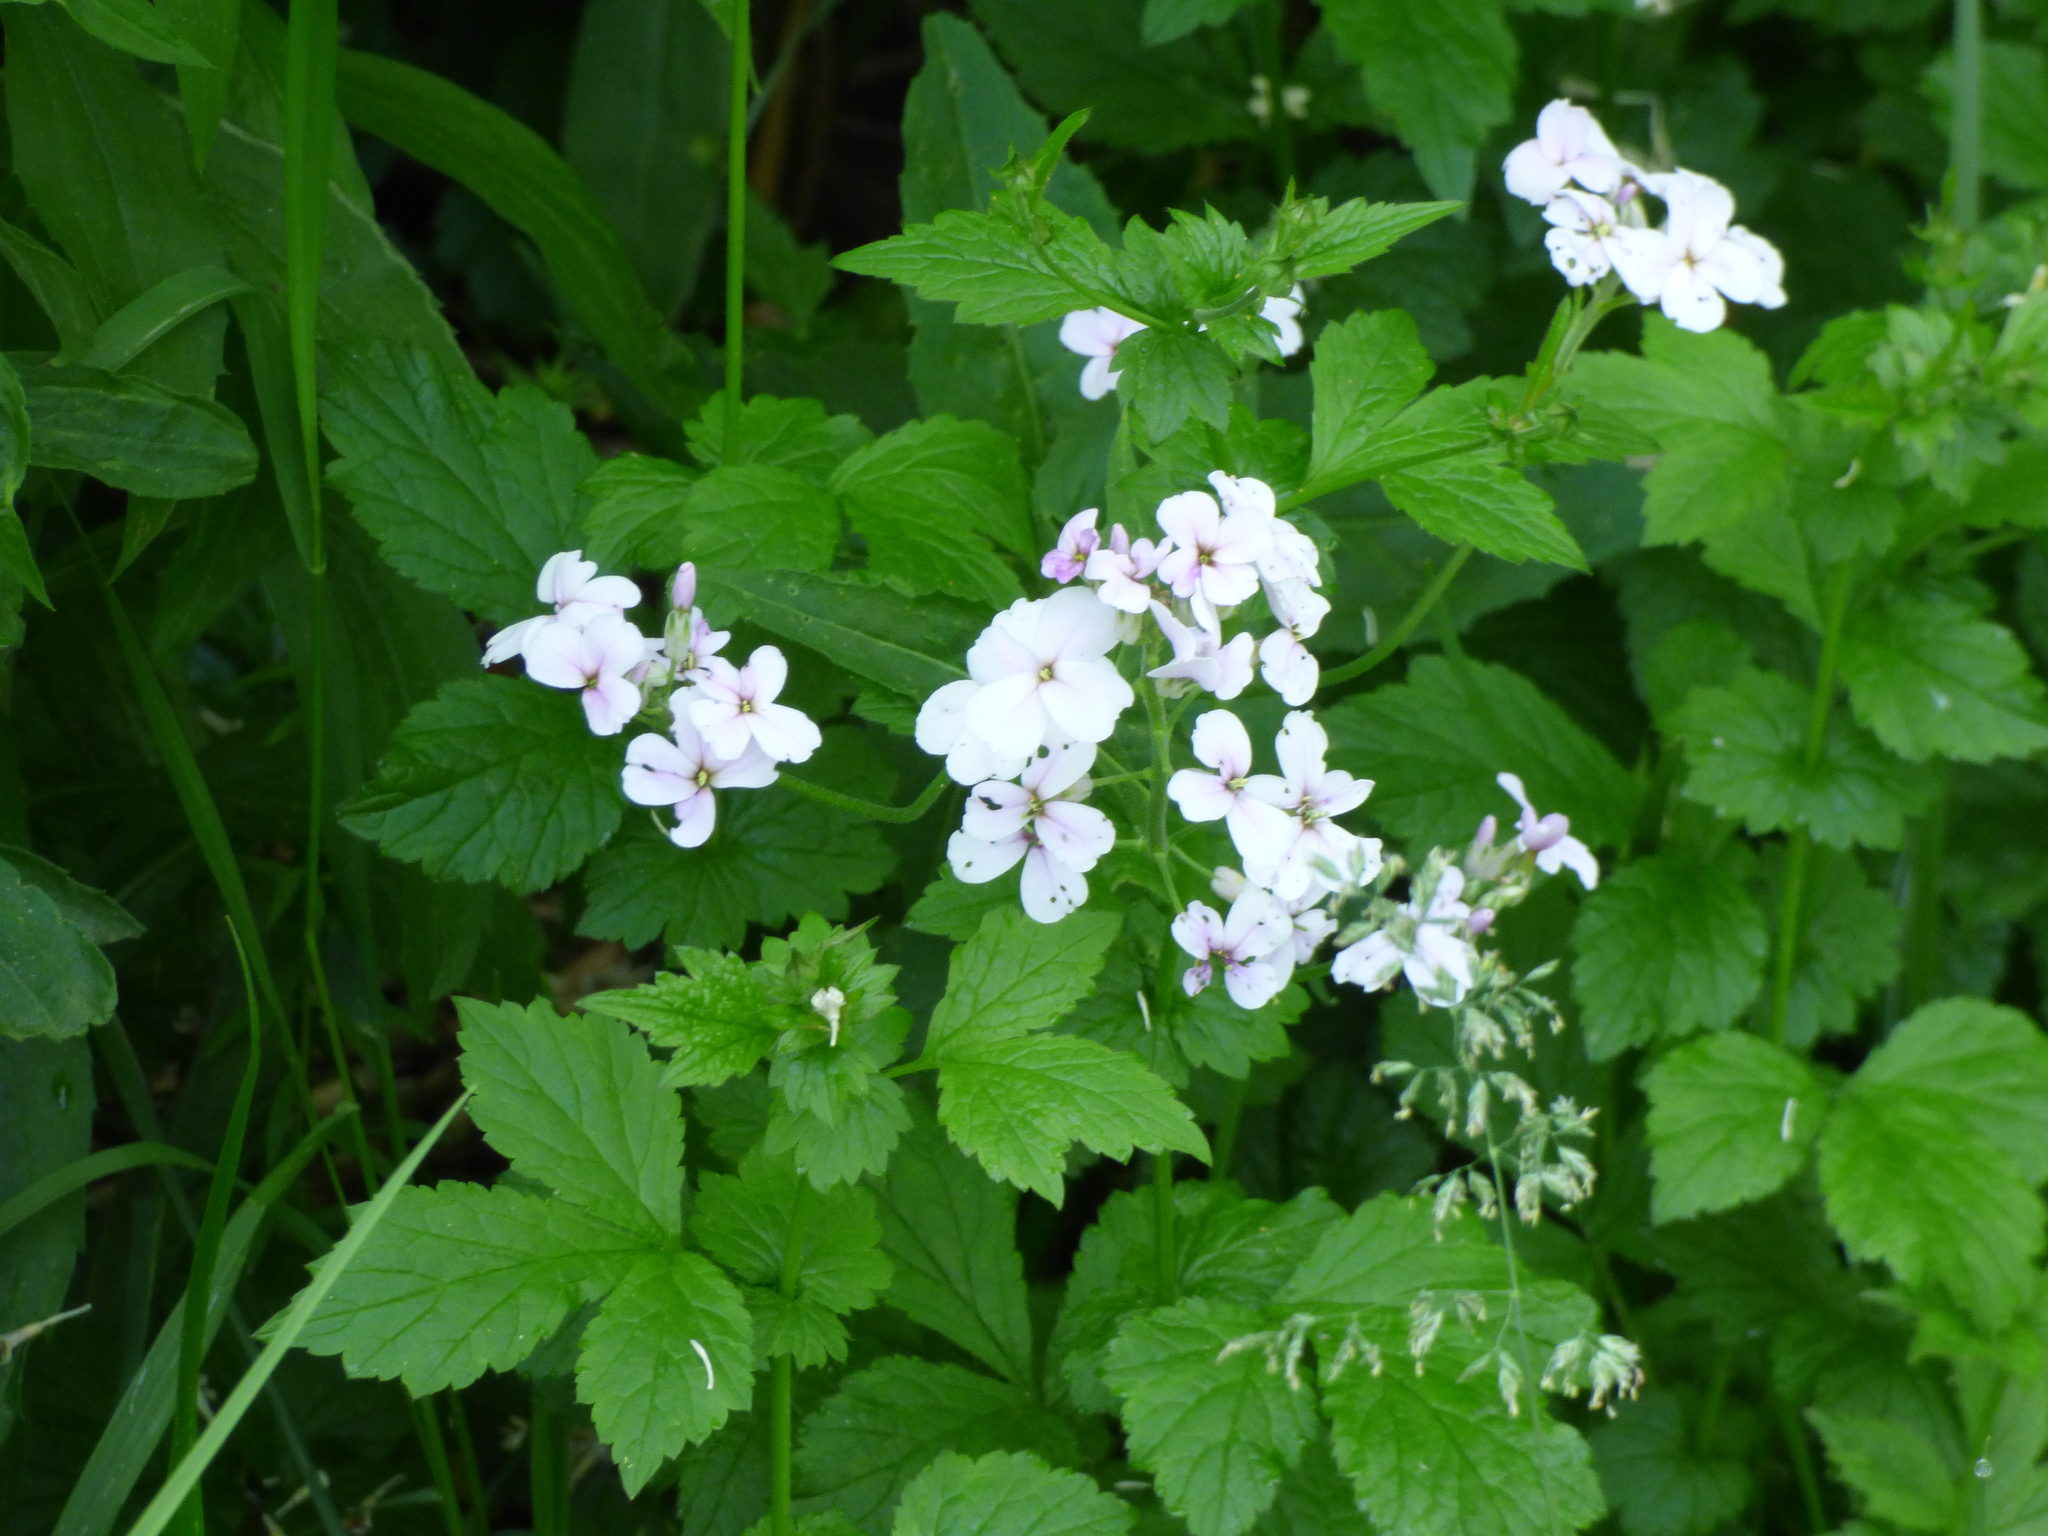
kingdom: Plantae
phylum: Tracheophyta
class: Magnoliopsida
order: Brassicales
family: Brassicaceae
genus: Hesperis
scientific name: Hesperis matronalis
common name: Dame's-violet
